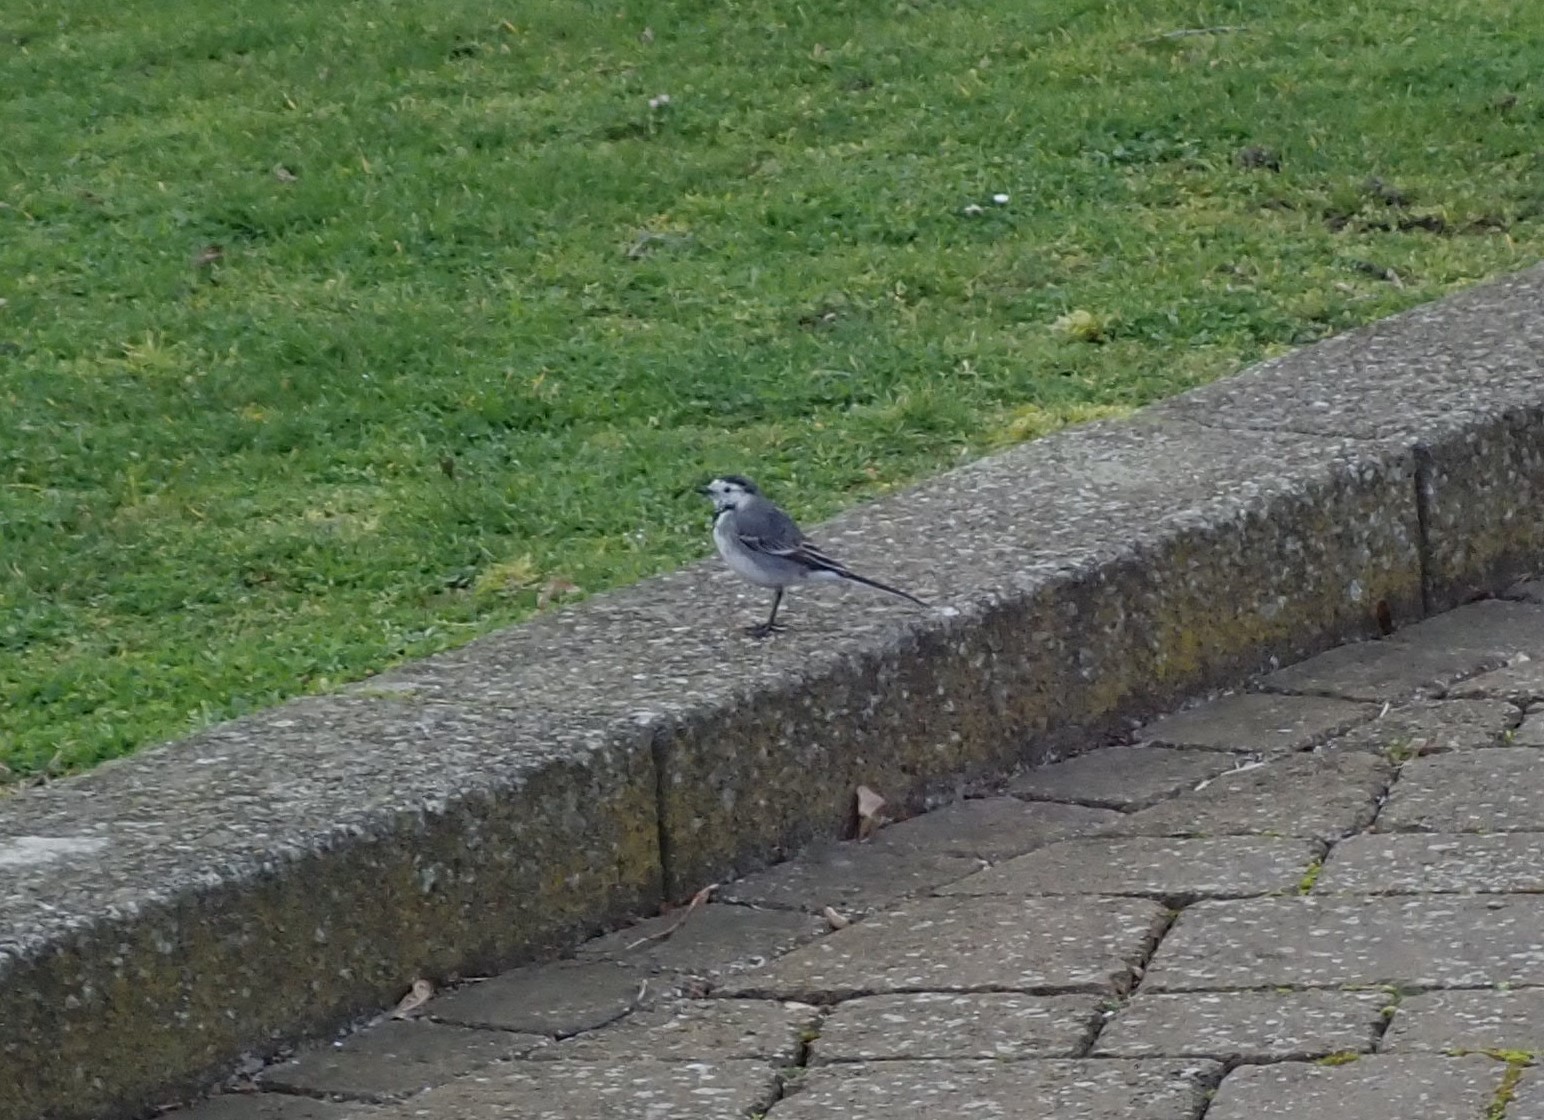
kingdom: Animalia
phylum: Chordata
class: Aves
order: Passeriformes
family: Motacillidae
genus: Motacilla
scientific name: Motacilla alba
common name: White wagtail
